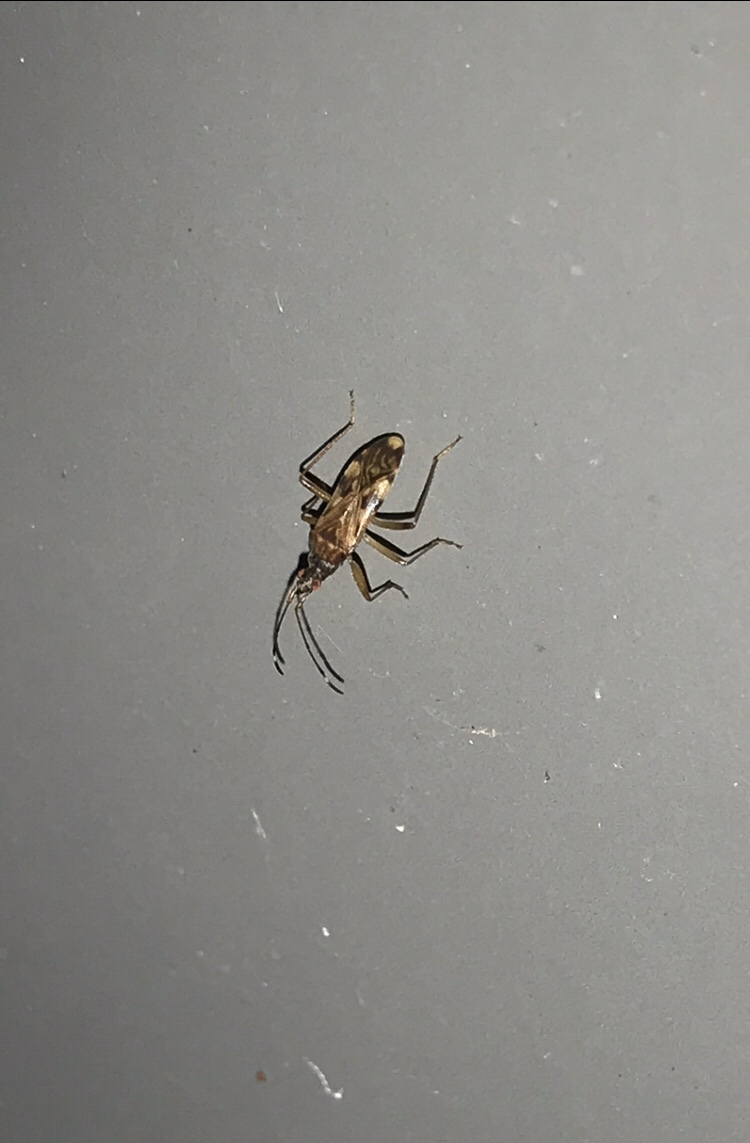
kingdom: Animalia
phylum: Arthropoda
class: Insecta
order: Hemiptera
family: Rhyparochromidae
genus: Ozophora
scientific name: Ozophora picturata
